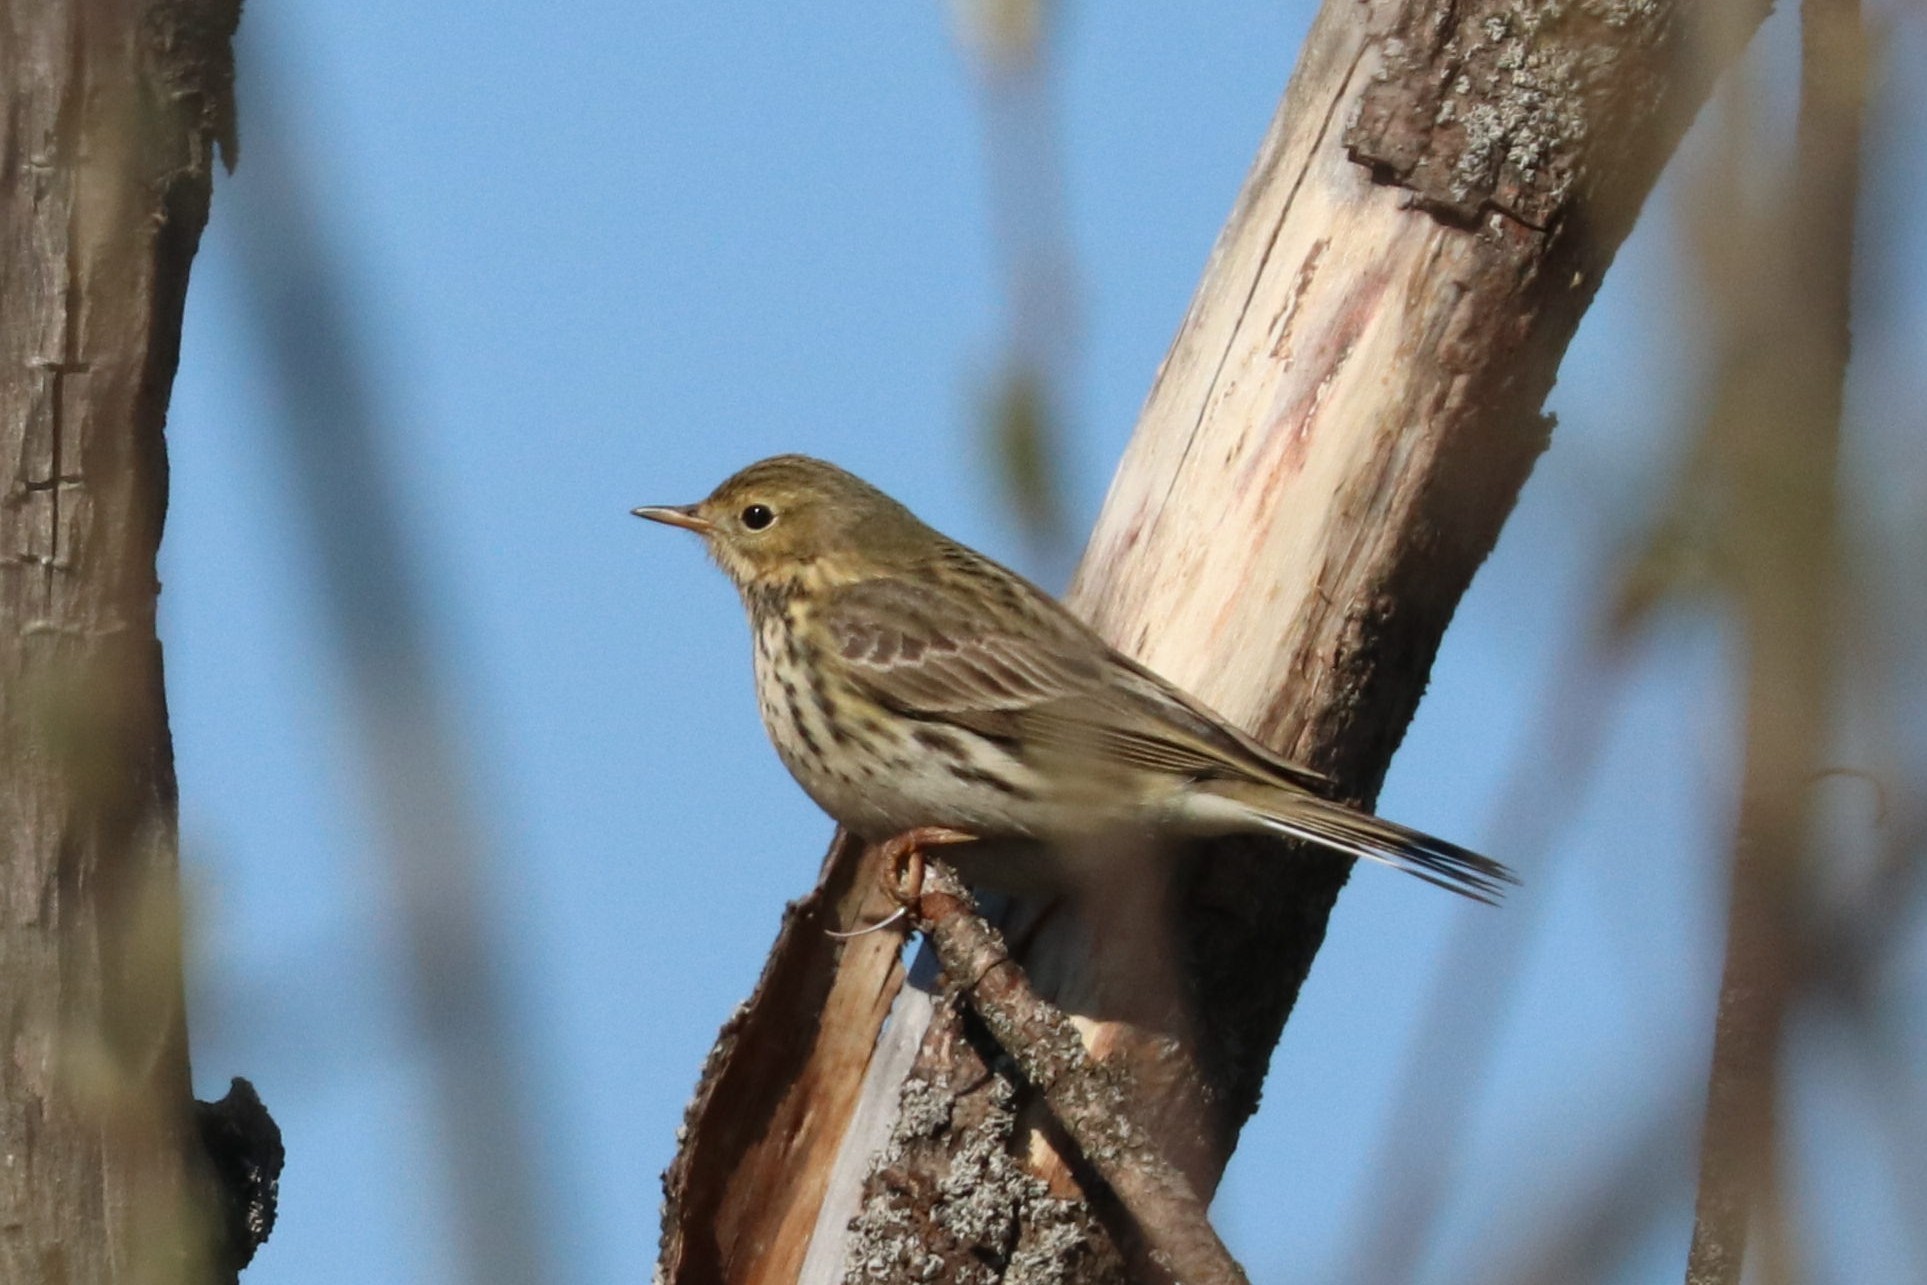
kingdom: Animalia
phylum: Chordata
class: Aves
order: Passeriformes
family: Motacillidae
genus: Anthus
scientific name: Anthus pratensis
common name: Meadow pipit
